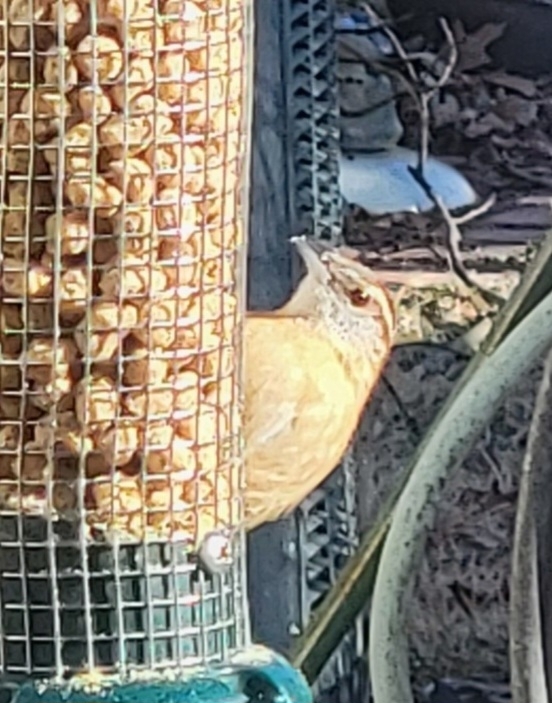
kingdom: Animalia
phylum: Chordata
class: Aves
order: Passeriformes
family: Troglodytidae
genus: Thryothorus
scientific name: Thryothorus ludovicianus
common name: Carolina wren
